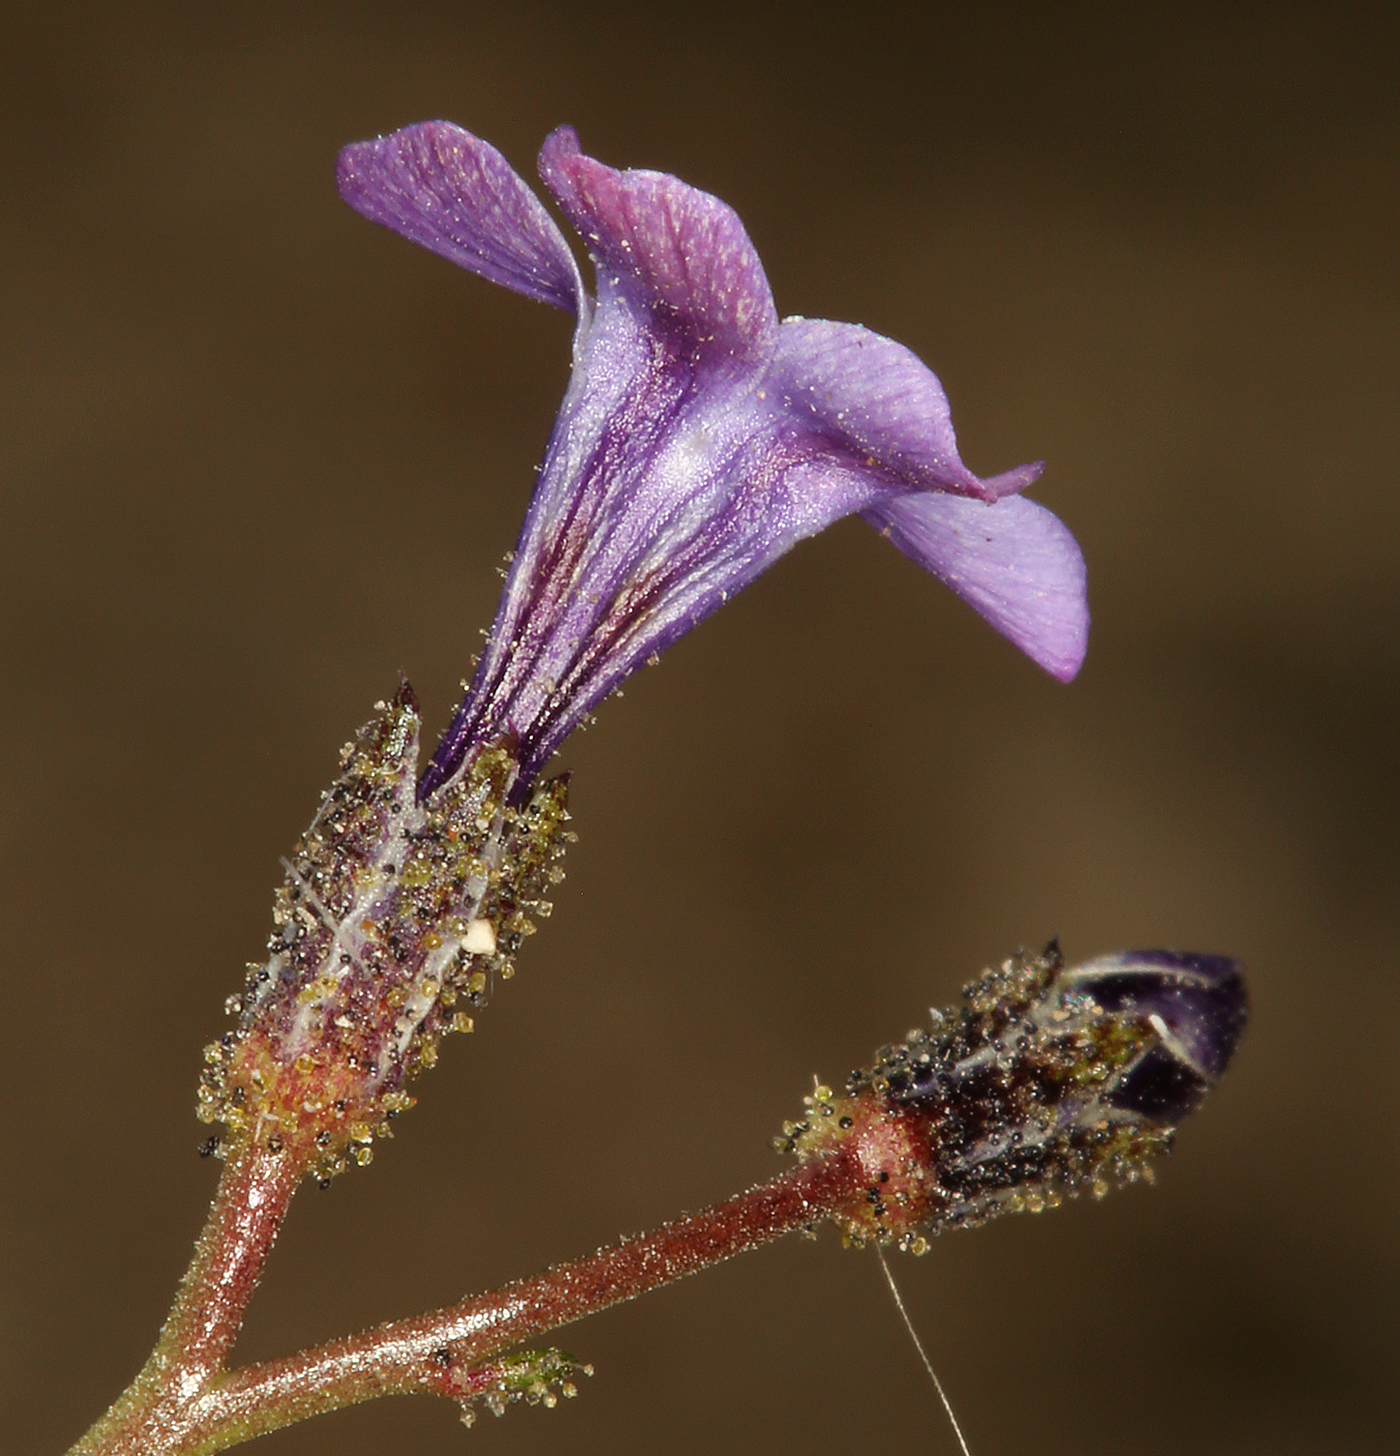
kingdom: Plantae
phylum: Tracheophyta
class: Magnoliopsida
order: Ericales
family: Polemoniaceae
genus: Gilia
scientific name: Gilia sinuata
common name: Rosy gilia
